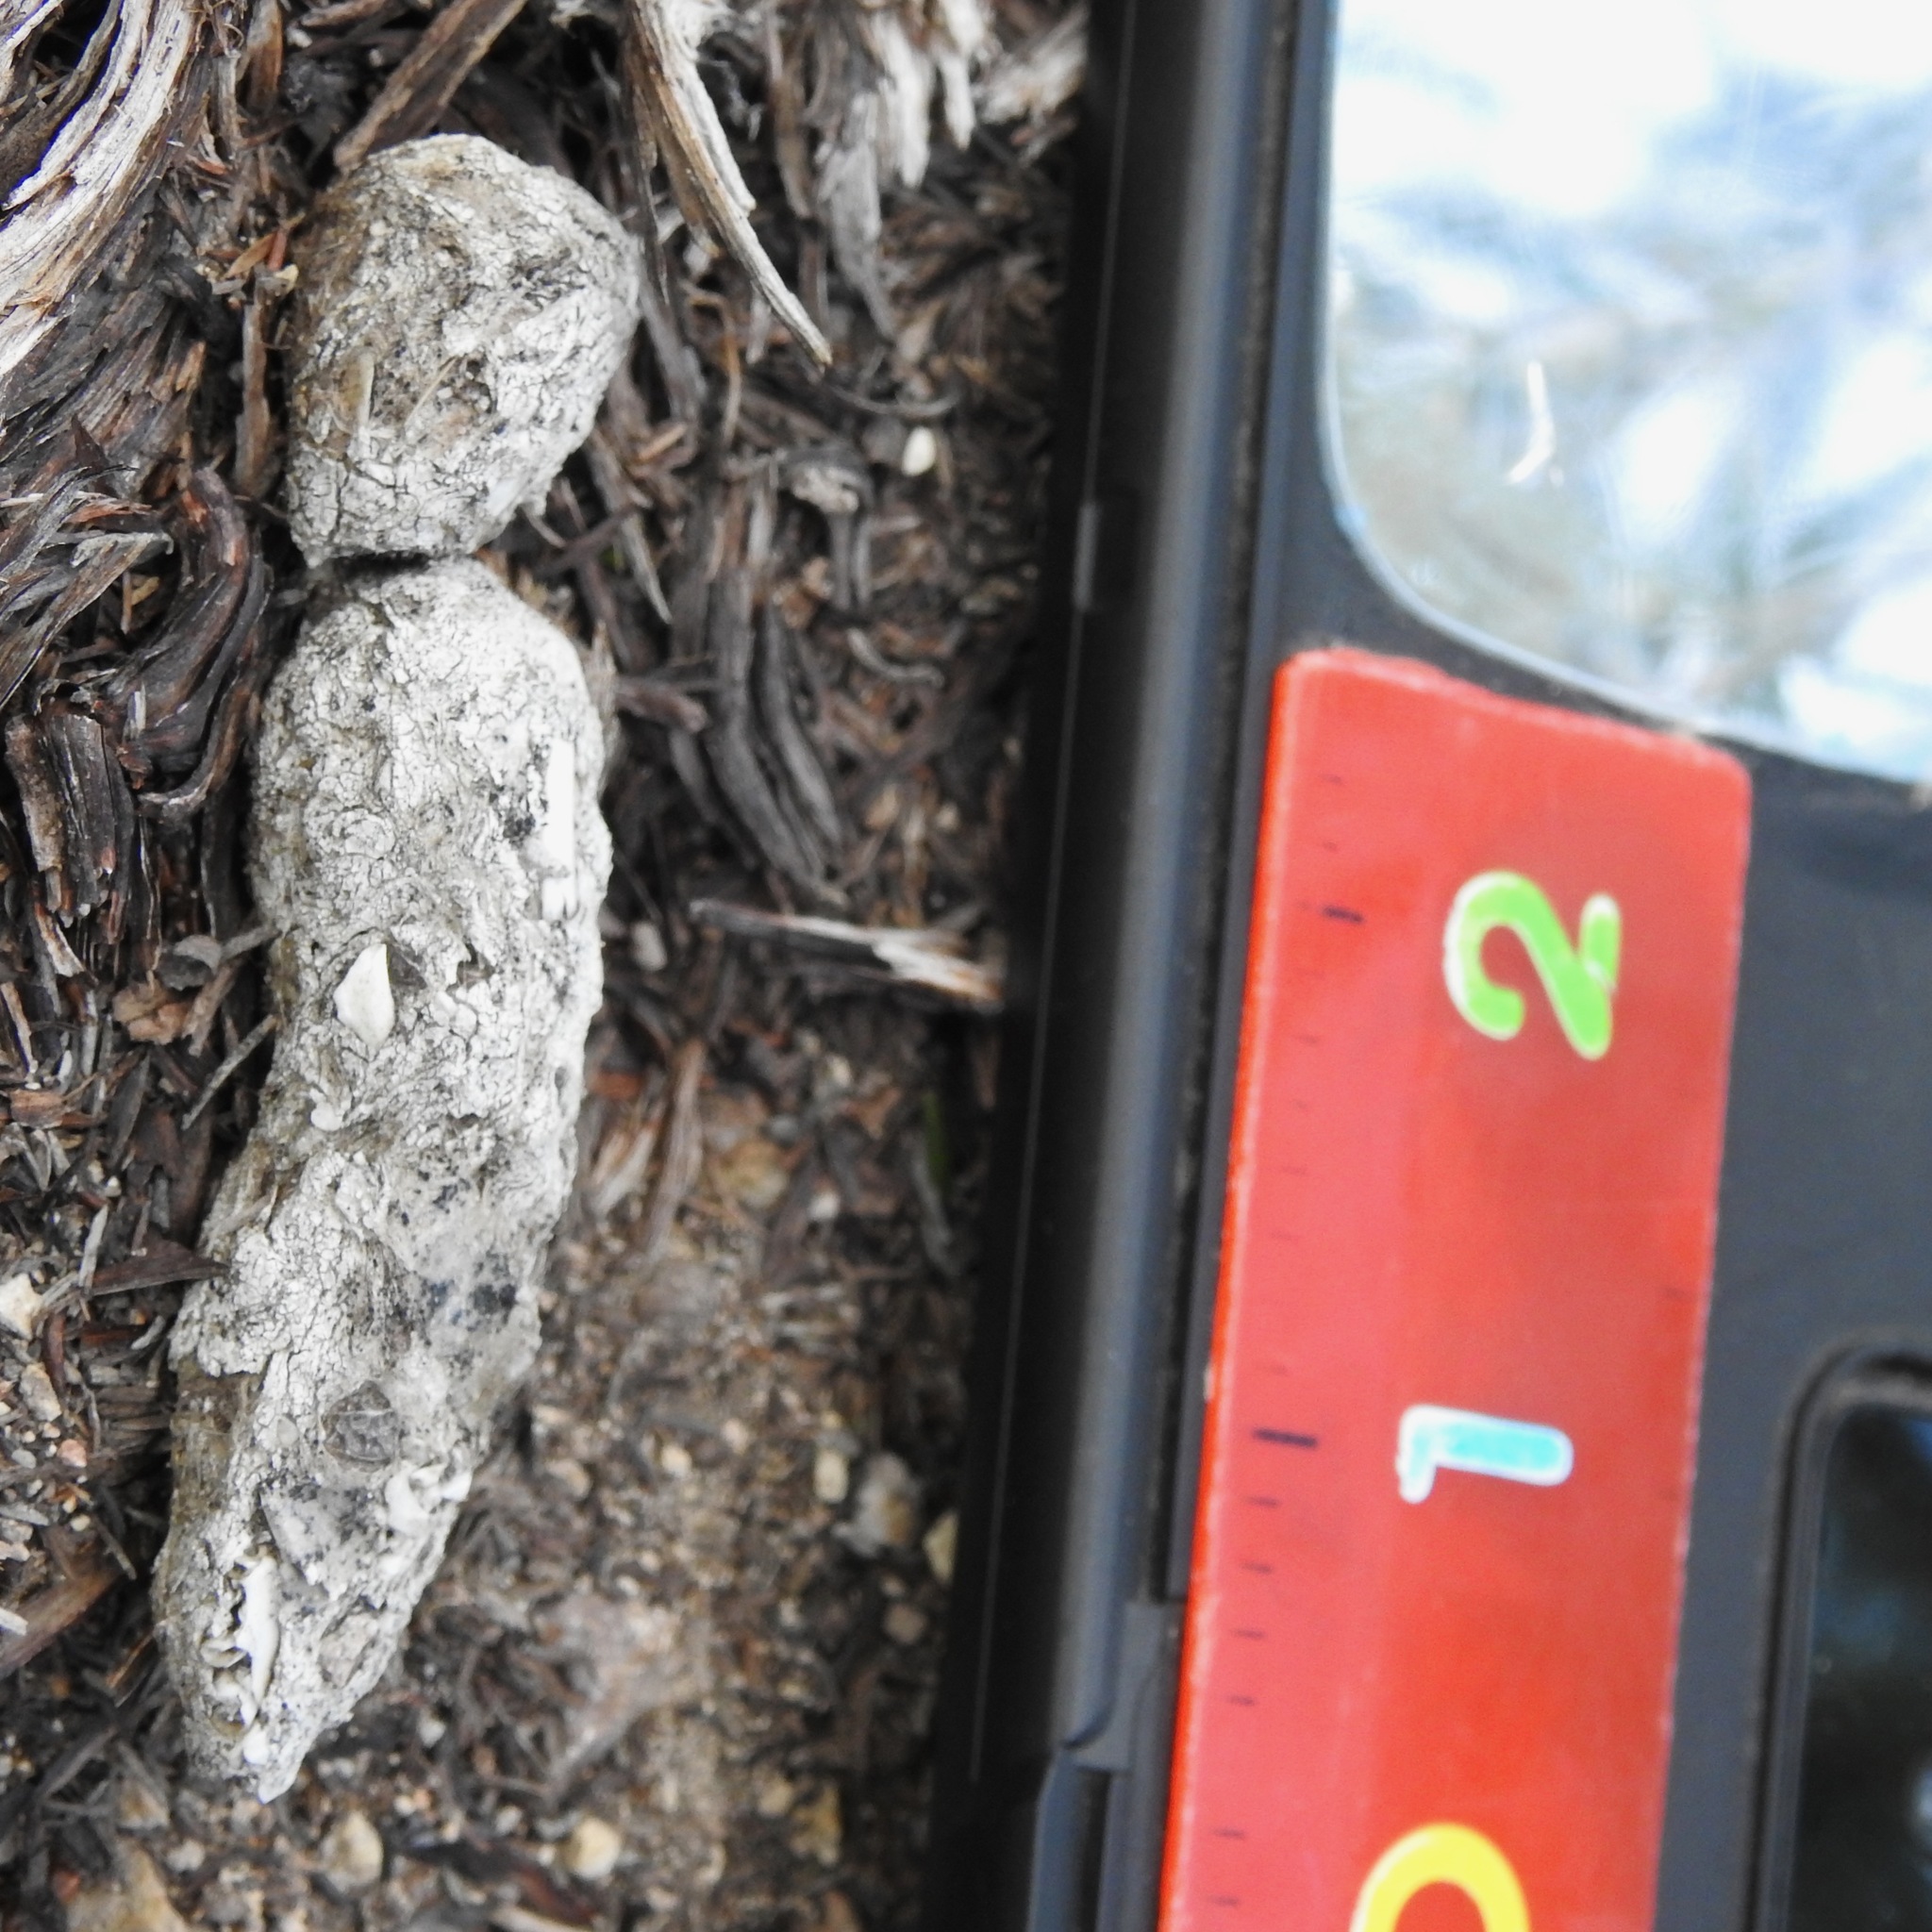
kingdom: Animalia
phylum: Chordata
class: Mammalia
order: Carnivora
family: Felidae
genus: Lynx
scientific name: Lynx rufus
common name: Bobcat
